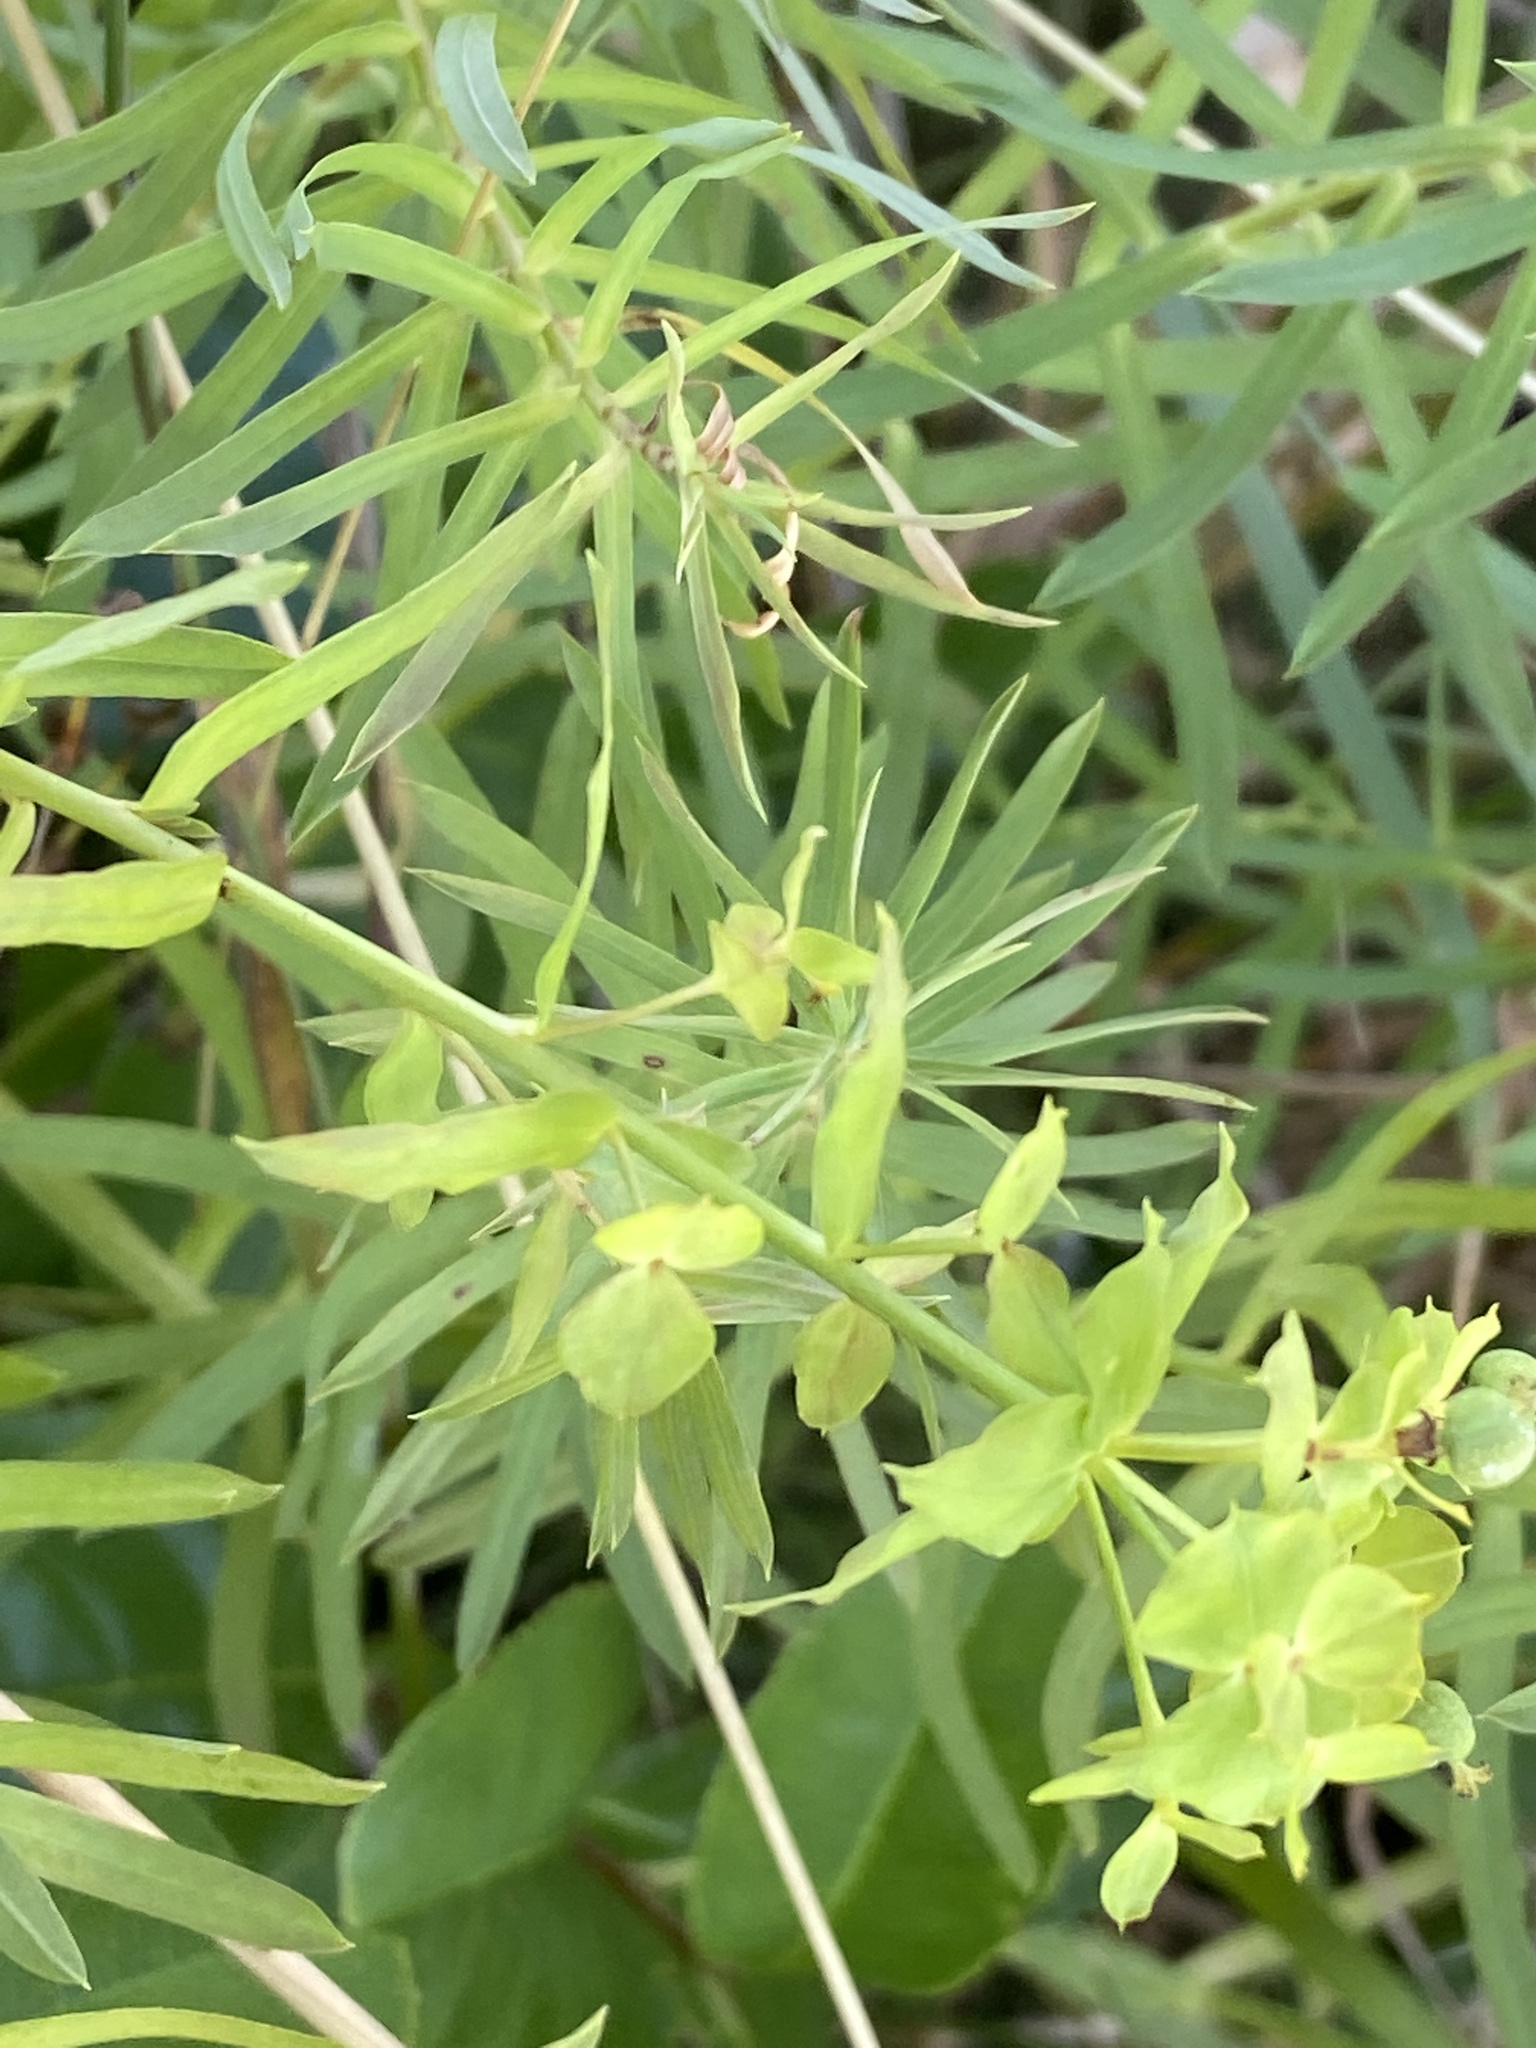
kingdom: Plantae
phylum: Tracheophyta
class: Magnoliopsida
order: Malpighiales
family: Euphorbiaceae
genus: Euphorbia
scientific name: Euphorbia saratoi
